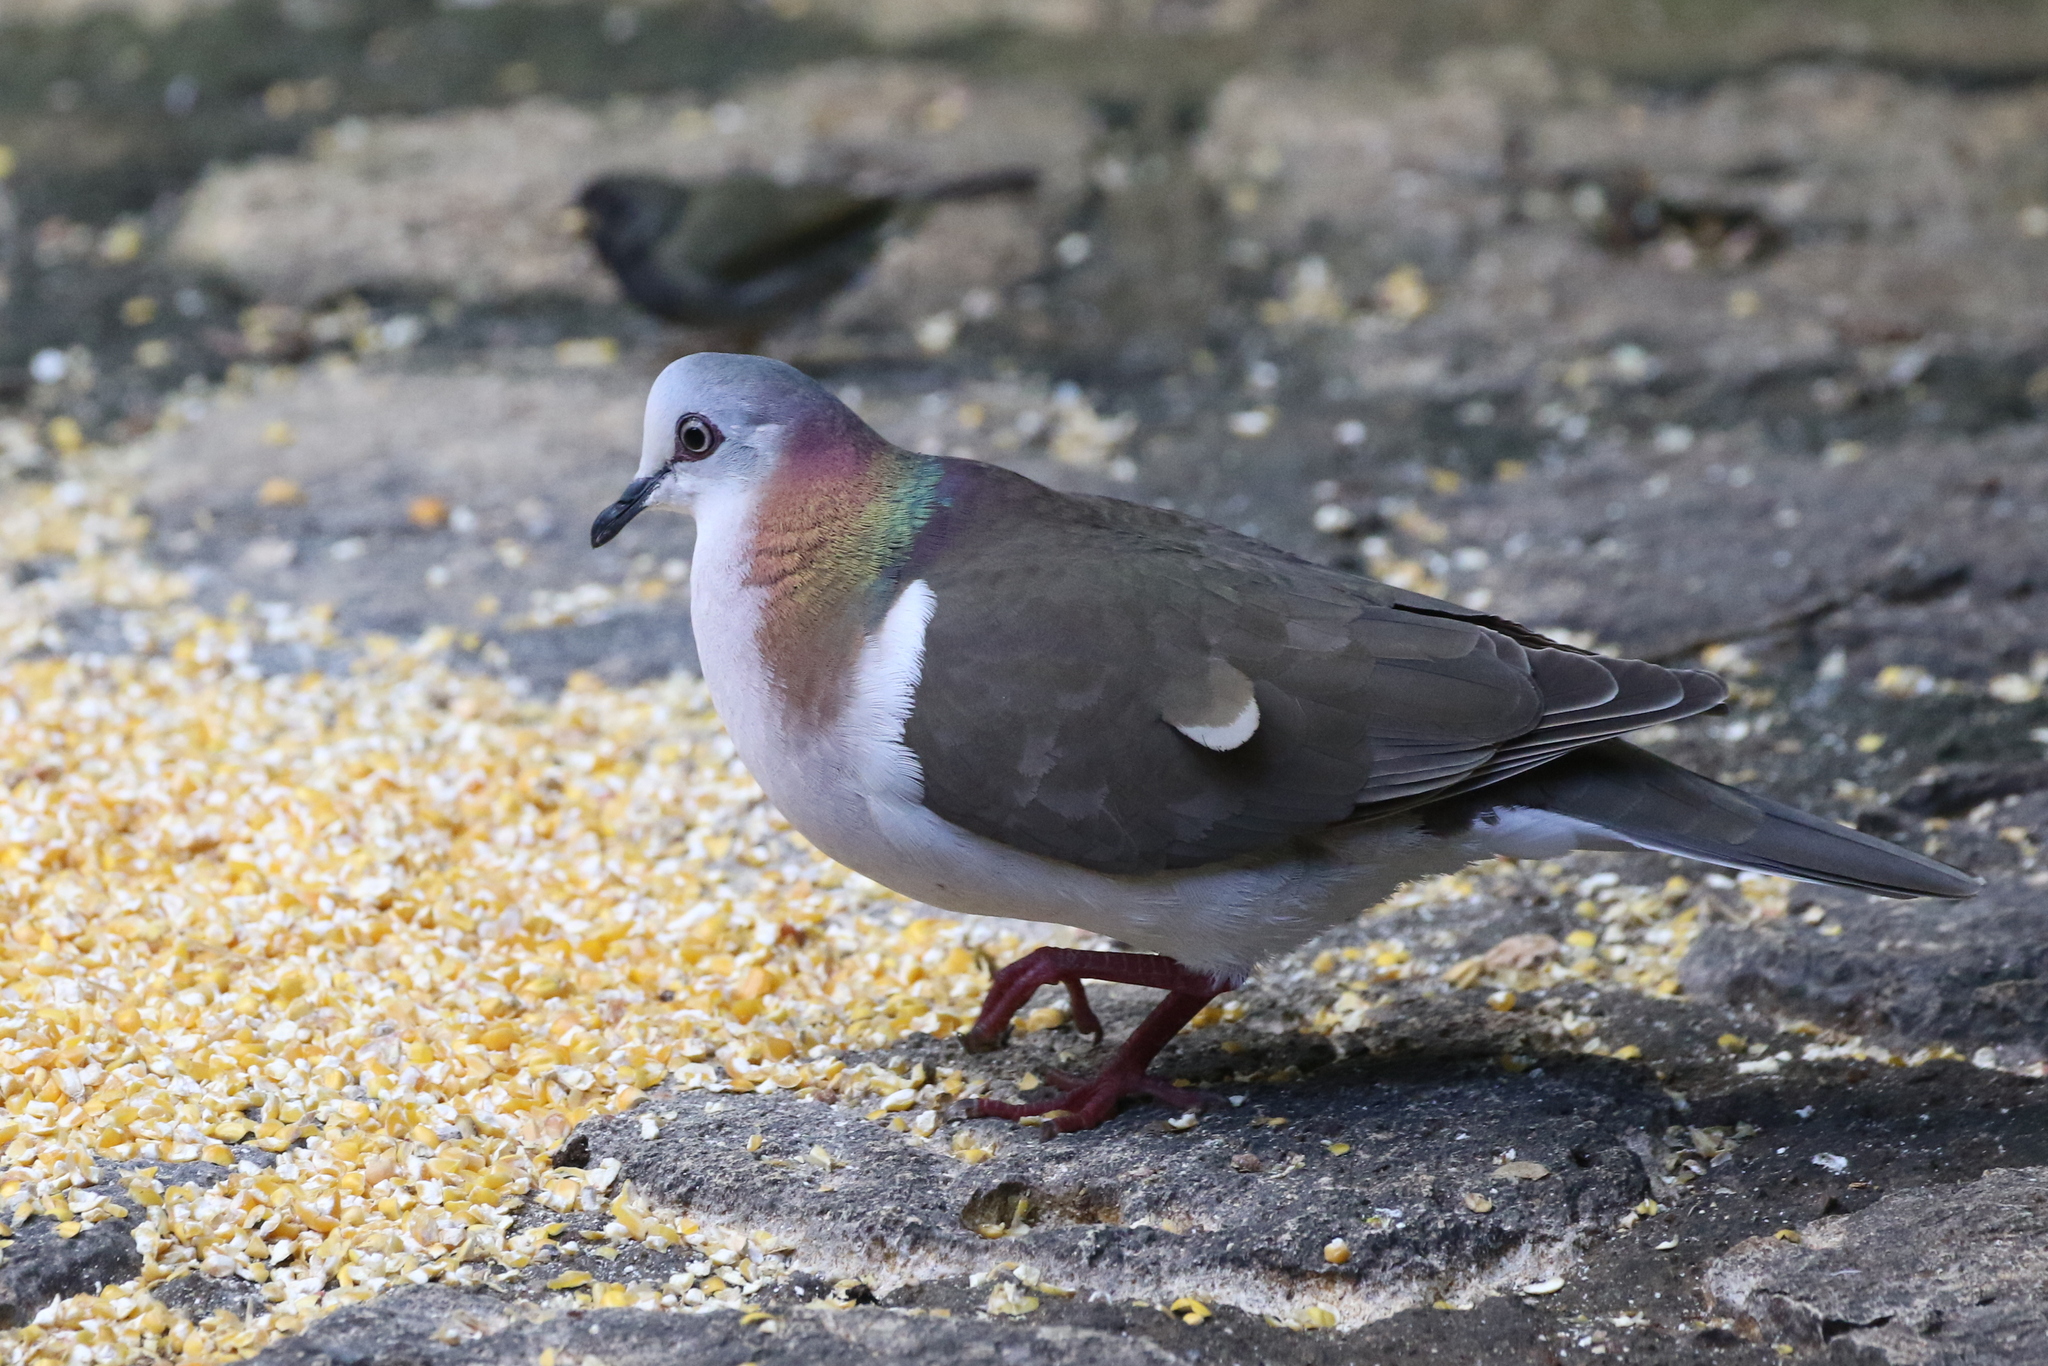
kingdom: Animalia
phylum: Chordata
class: Aves
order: Columbiformes
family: Columbidae
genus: Leptotila
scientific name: Leptotila jamaicensis
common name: Caribbean dove
